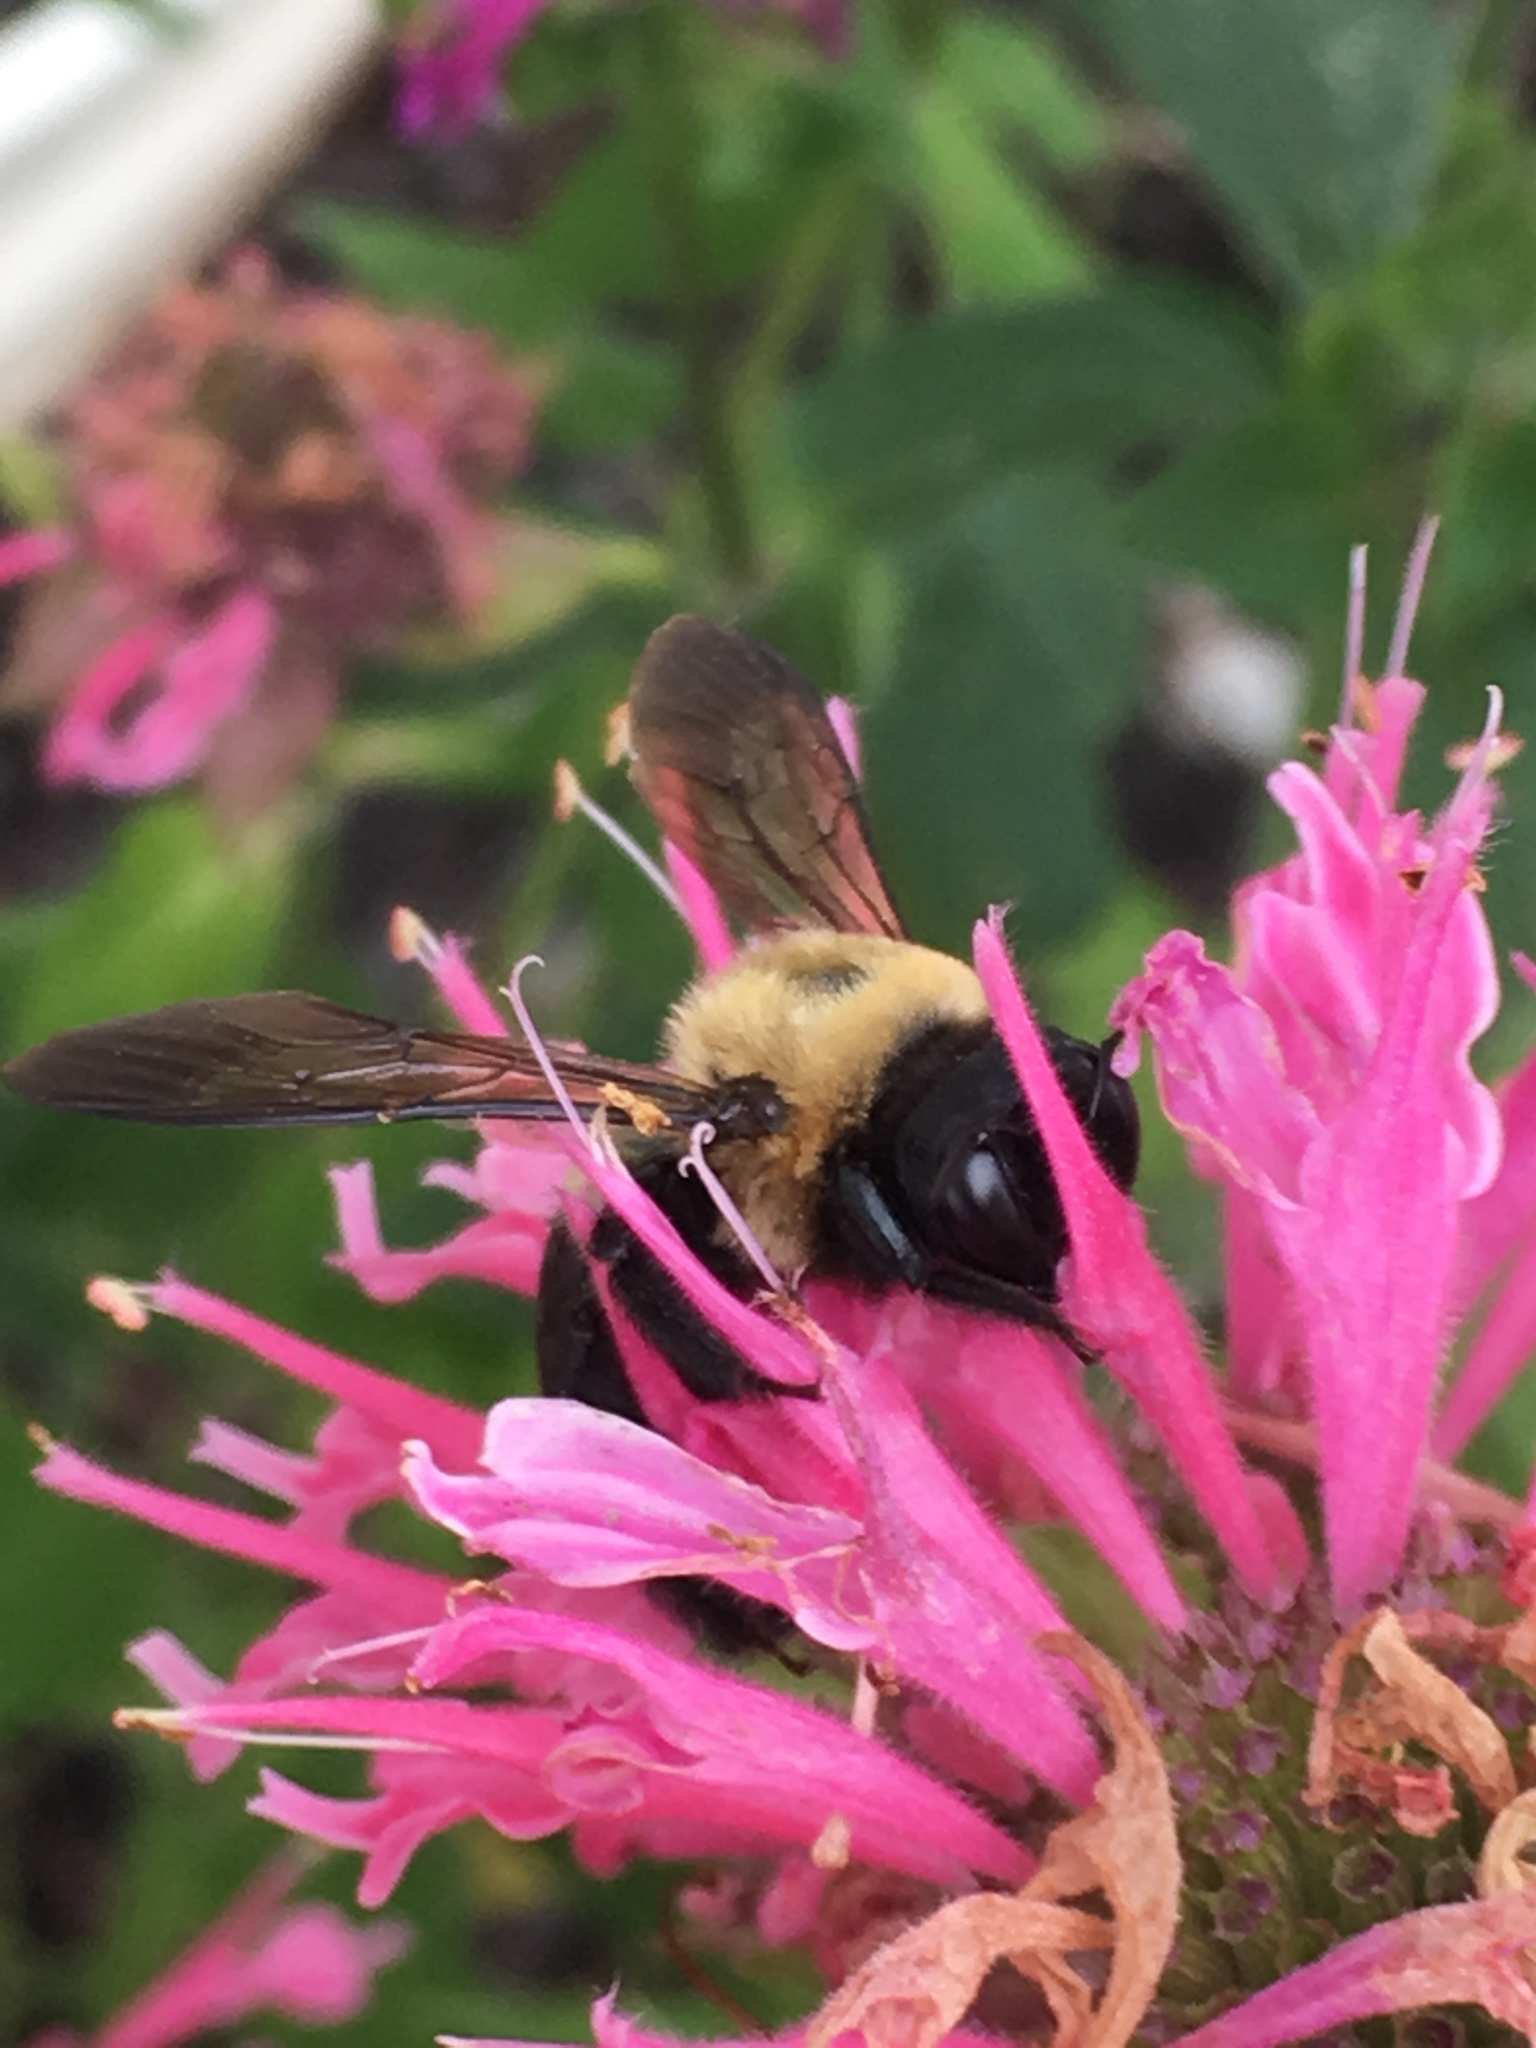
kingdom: Animalia
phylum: Arthropoda
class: Insecta
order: Hymenoptera
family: Apidae
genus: Xylocopa
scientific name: Xylocopa virginica
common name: Carpenter bee
